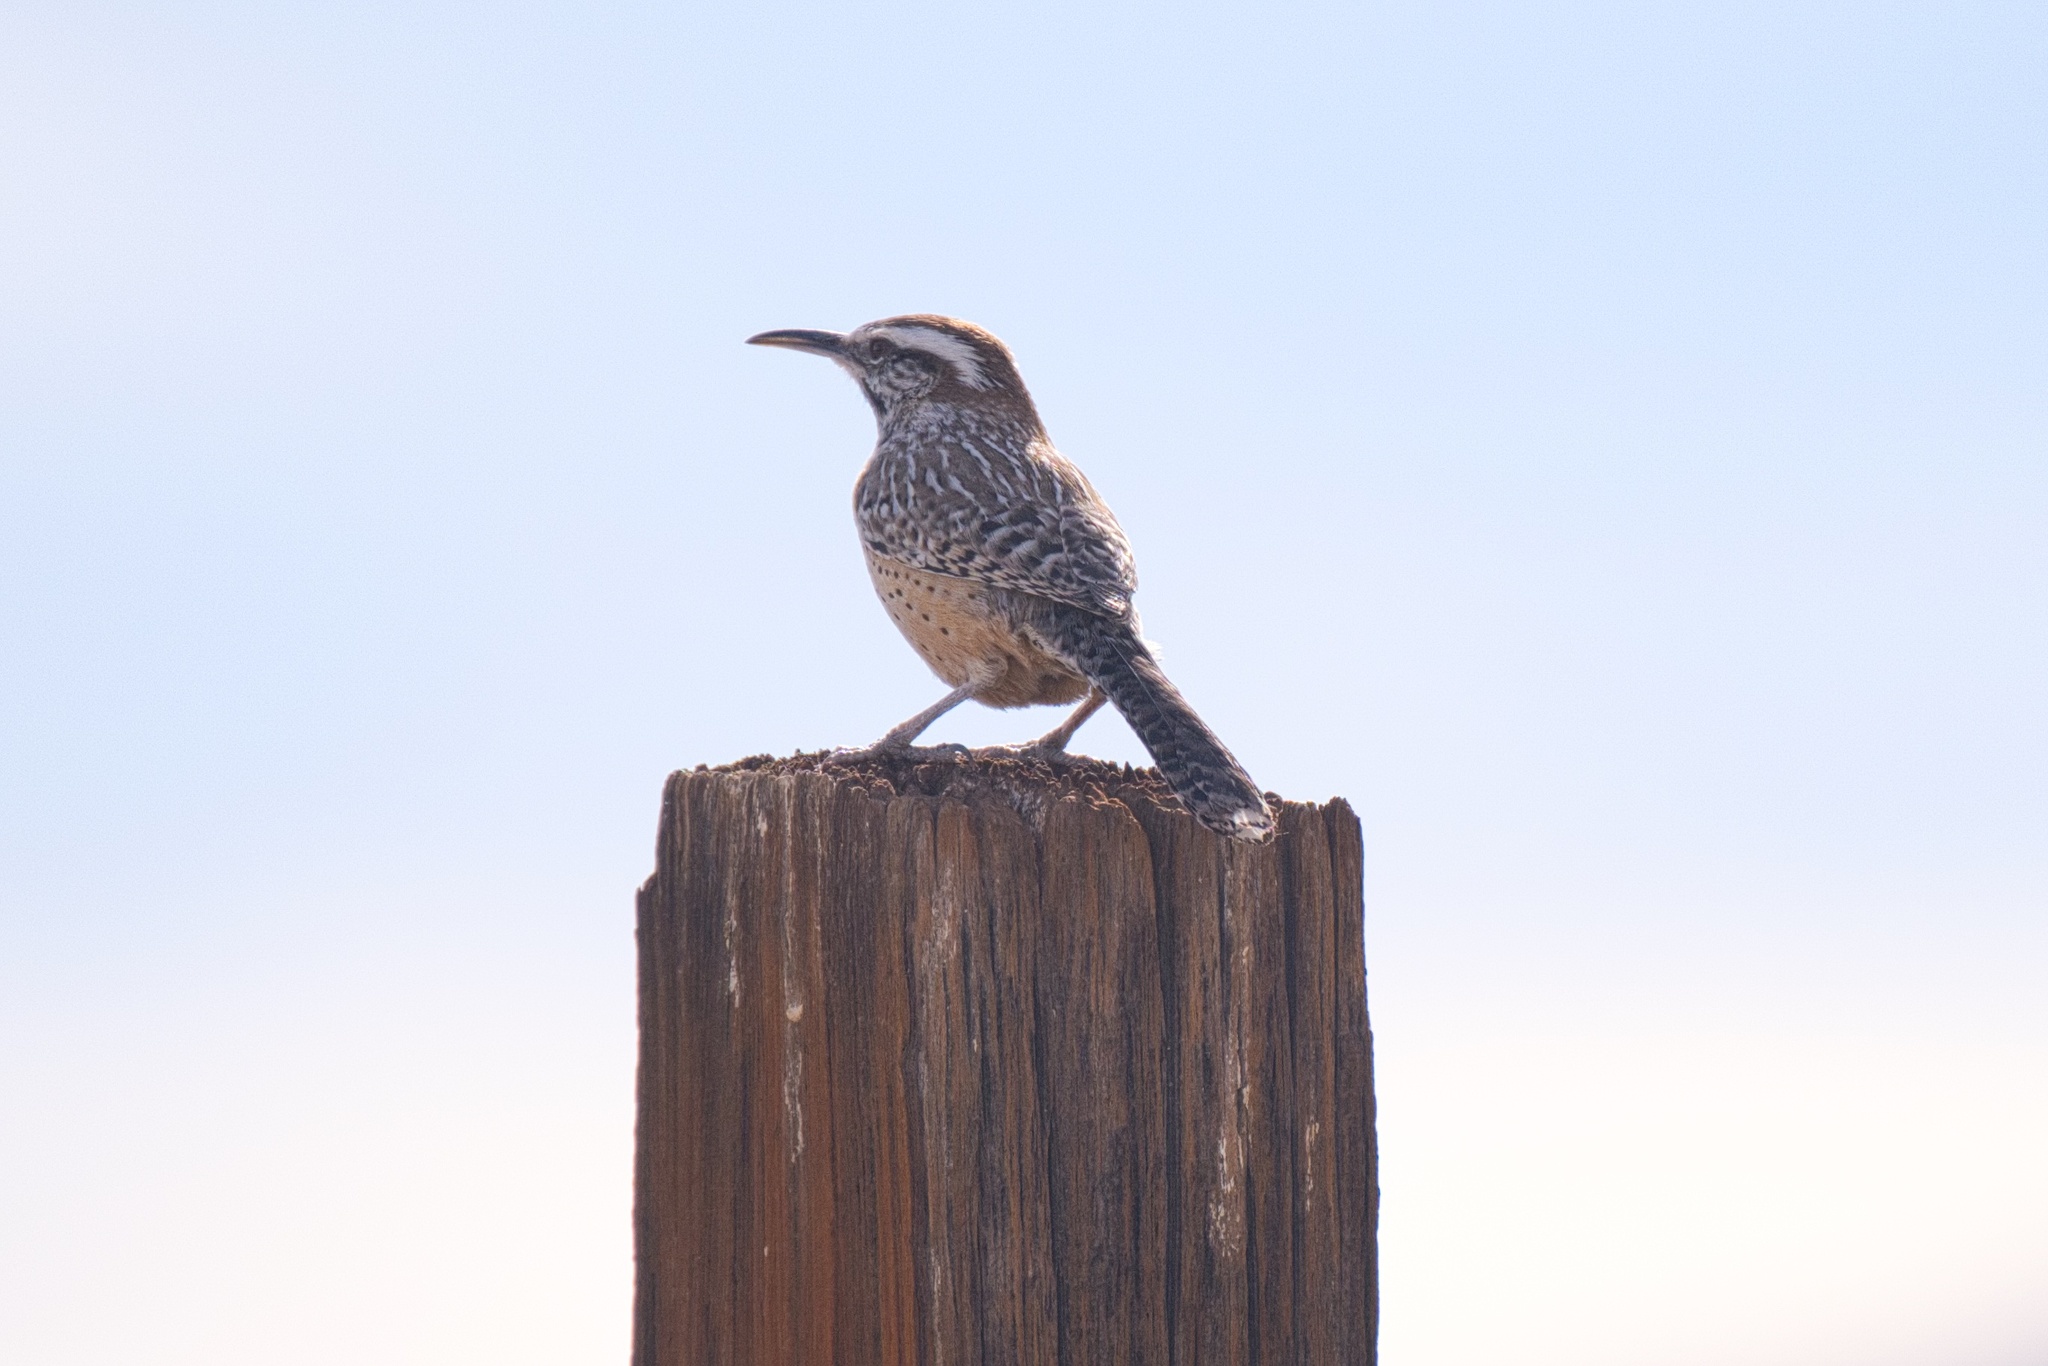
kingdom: Animalia
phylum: Chordata
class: Aves
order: Passeriformes
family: Troglodytidae
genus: Campylorhynchus
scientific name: Campylorhynchus brunneicapillus
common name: Cactus wren
